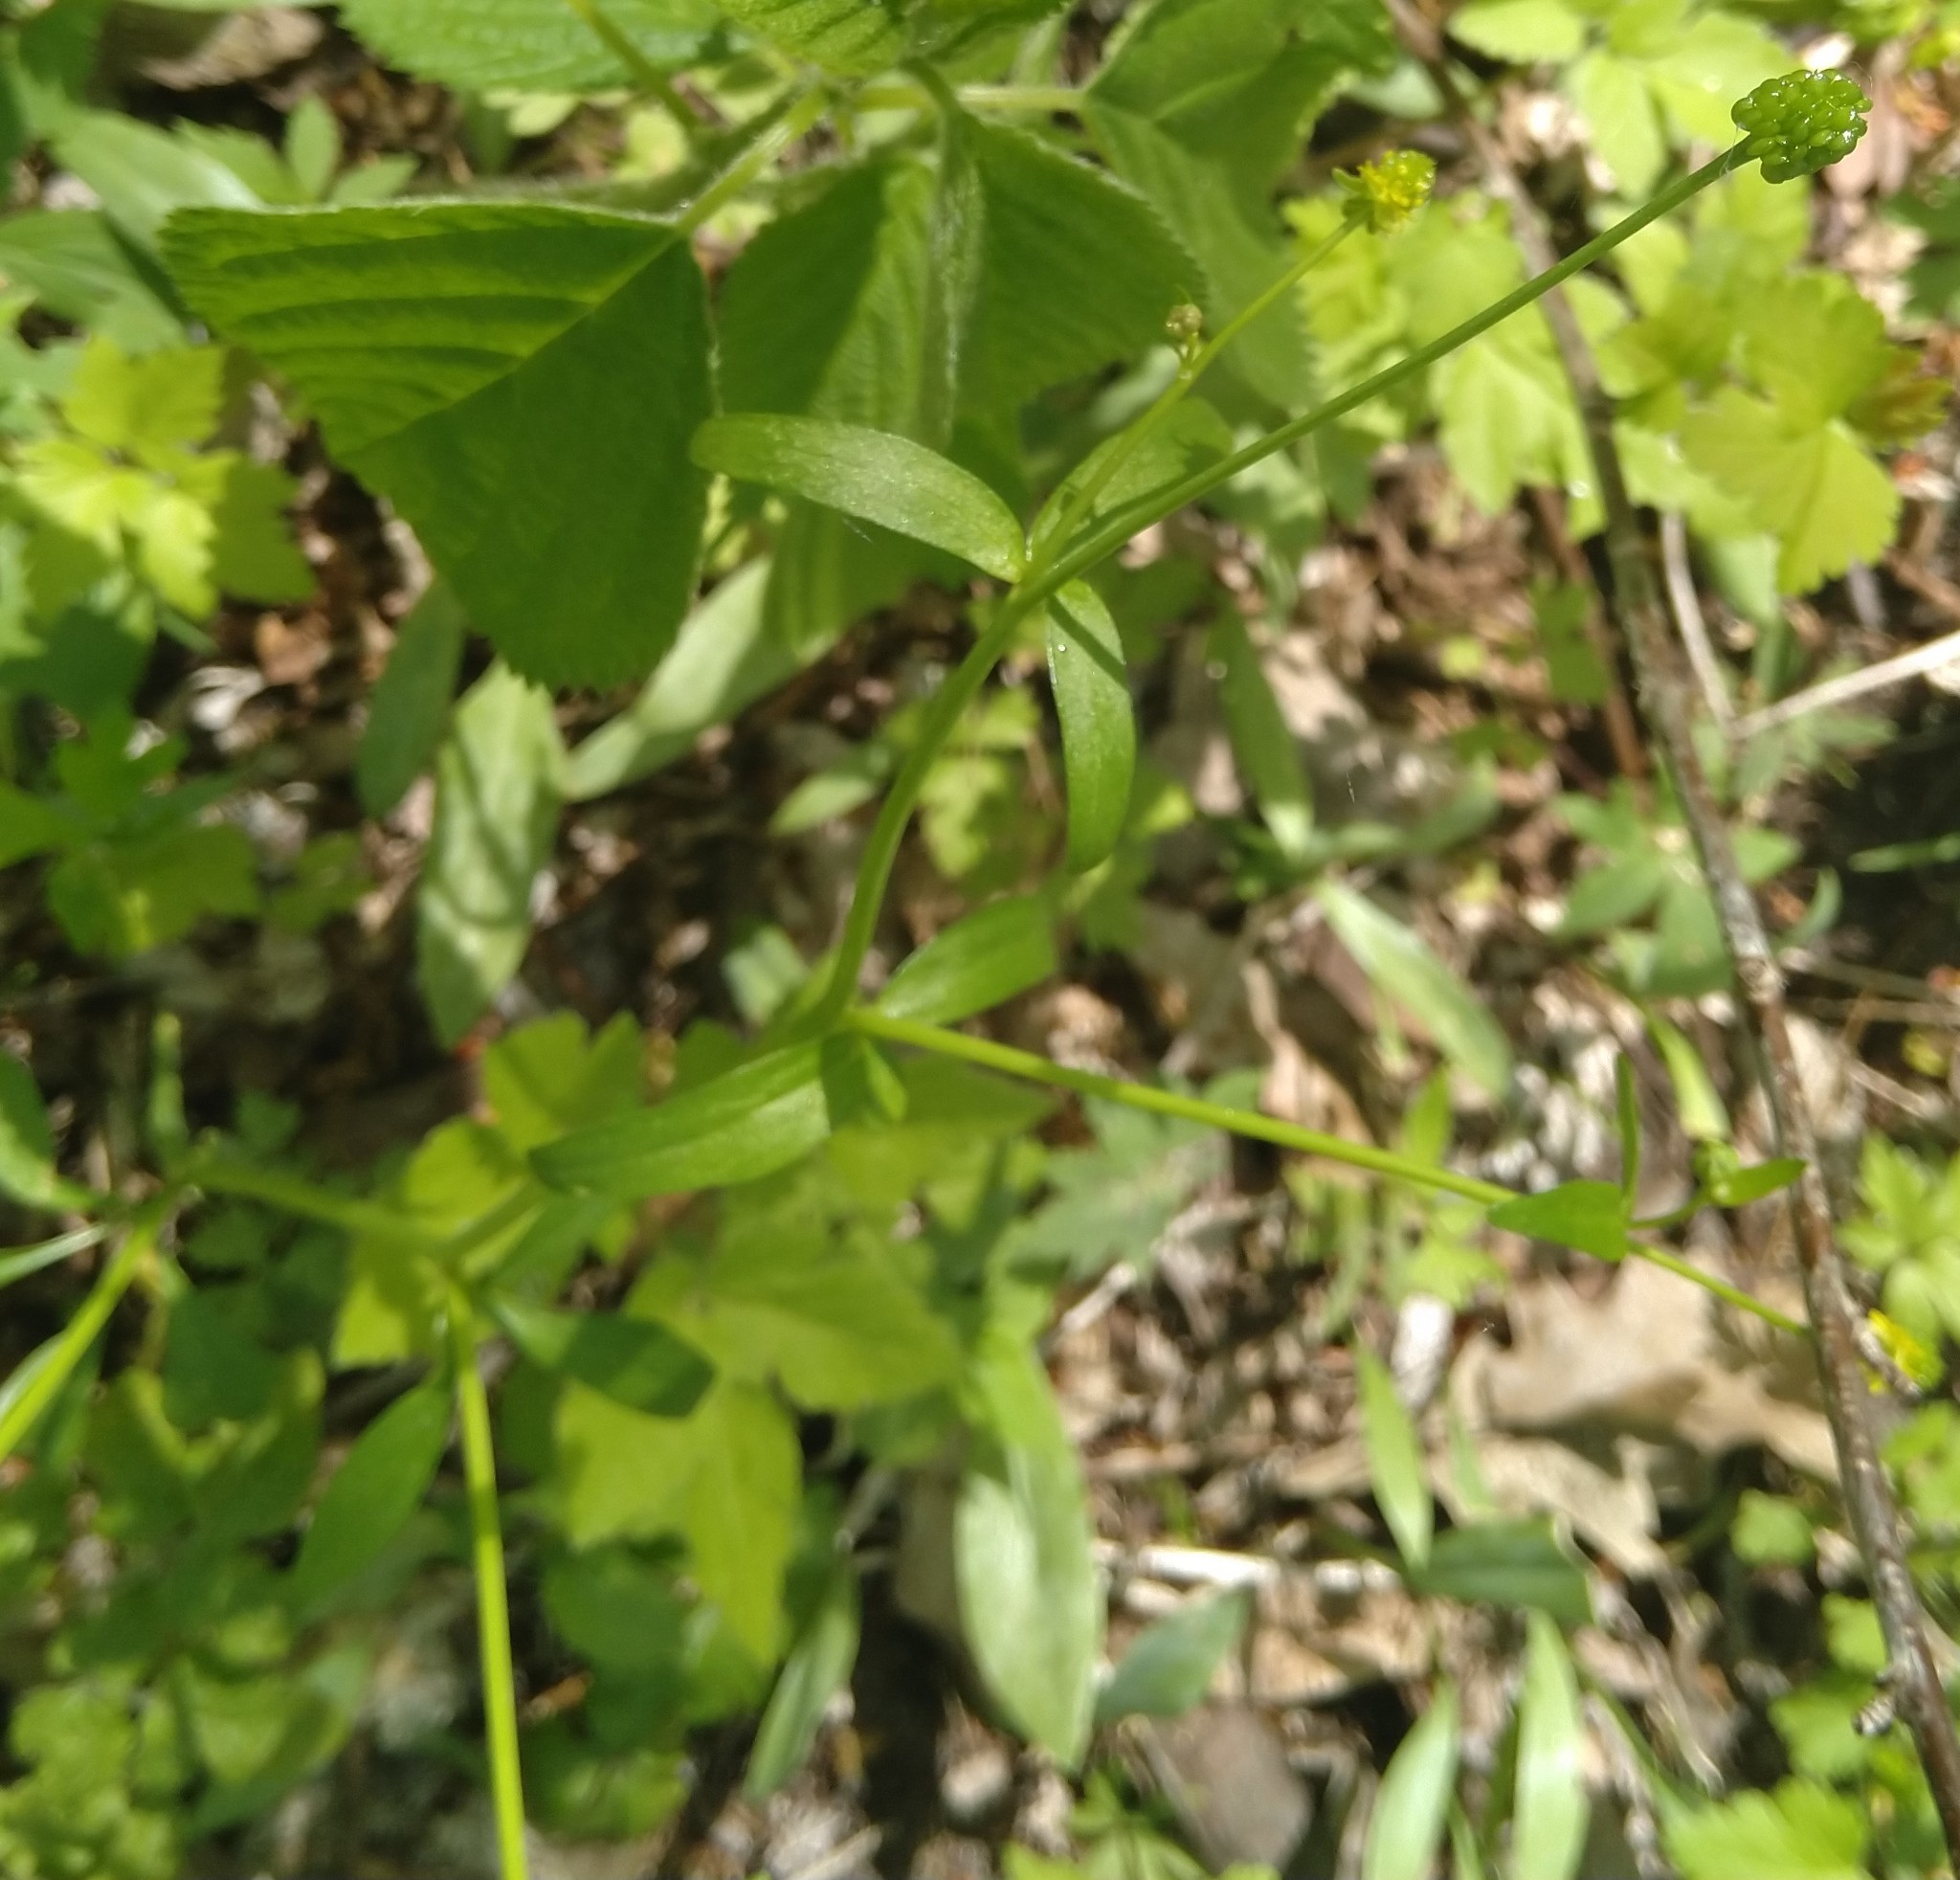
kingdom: Plantae
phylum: Tracheophyta
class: Magnoliopsida
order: Ranunculales
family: Ranunculaceae
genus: Ranunculus
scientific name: Ranunculus abortivus
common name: Early wood buttercup
